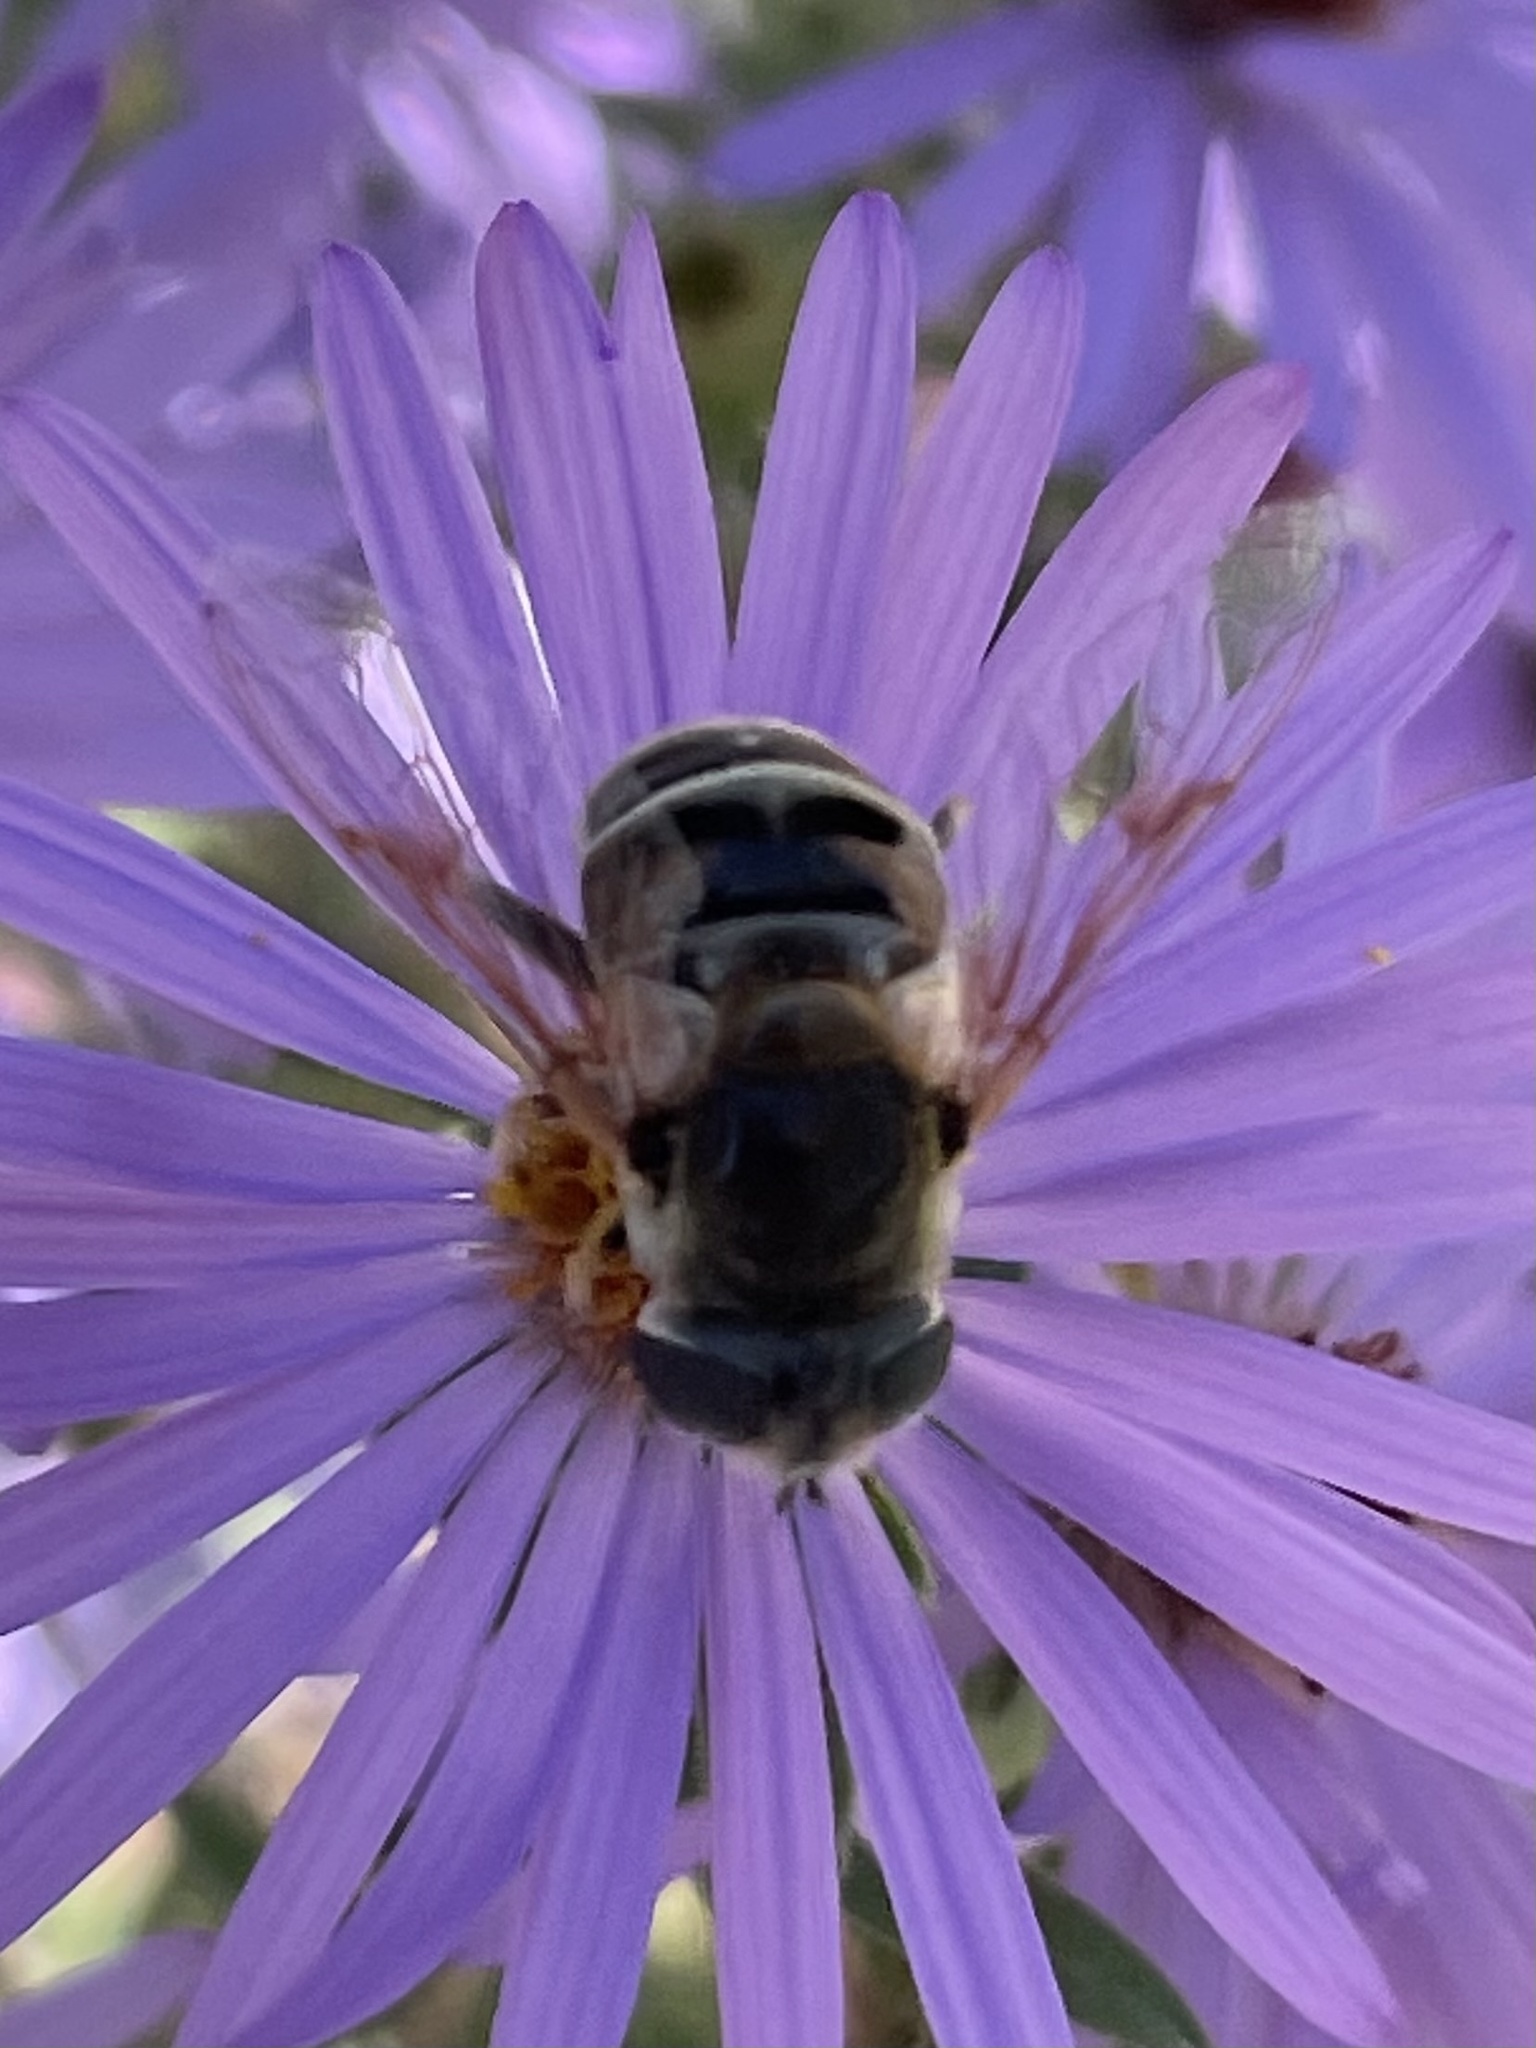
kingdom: Animalia
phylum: Arthropoda
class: Insecta
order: Diptera
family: Syrphidae
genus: Eristalis
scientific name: Eristalis stipator
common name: Yellow-shouldered drone fly
